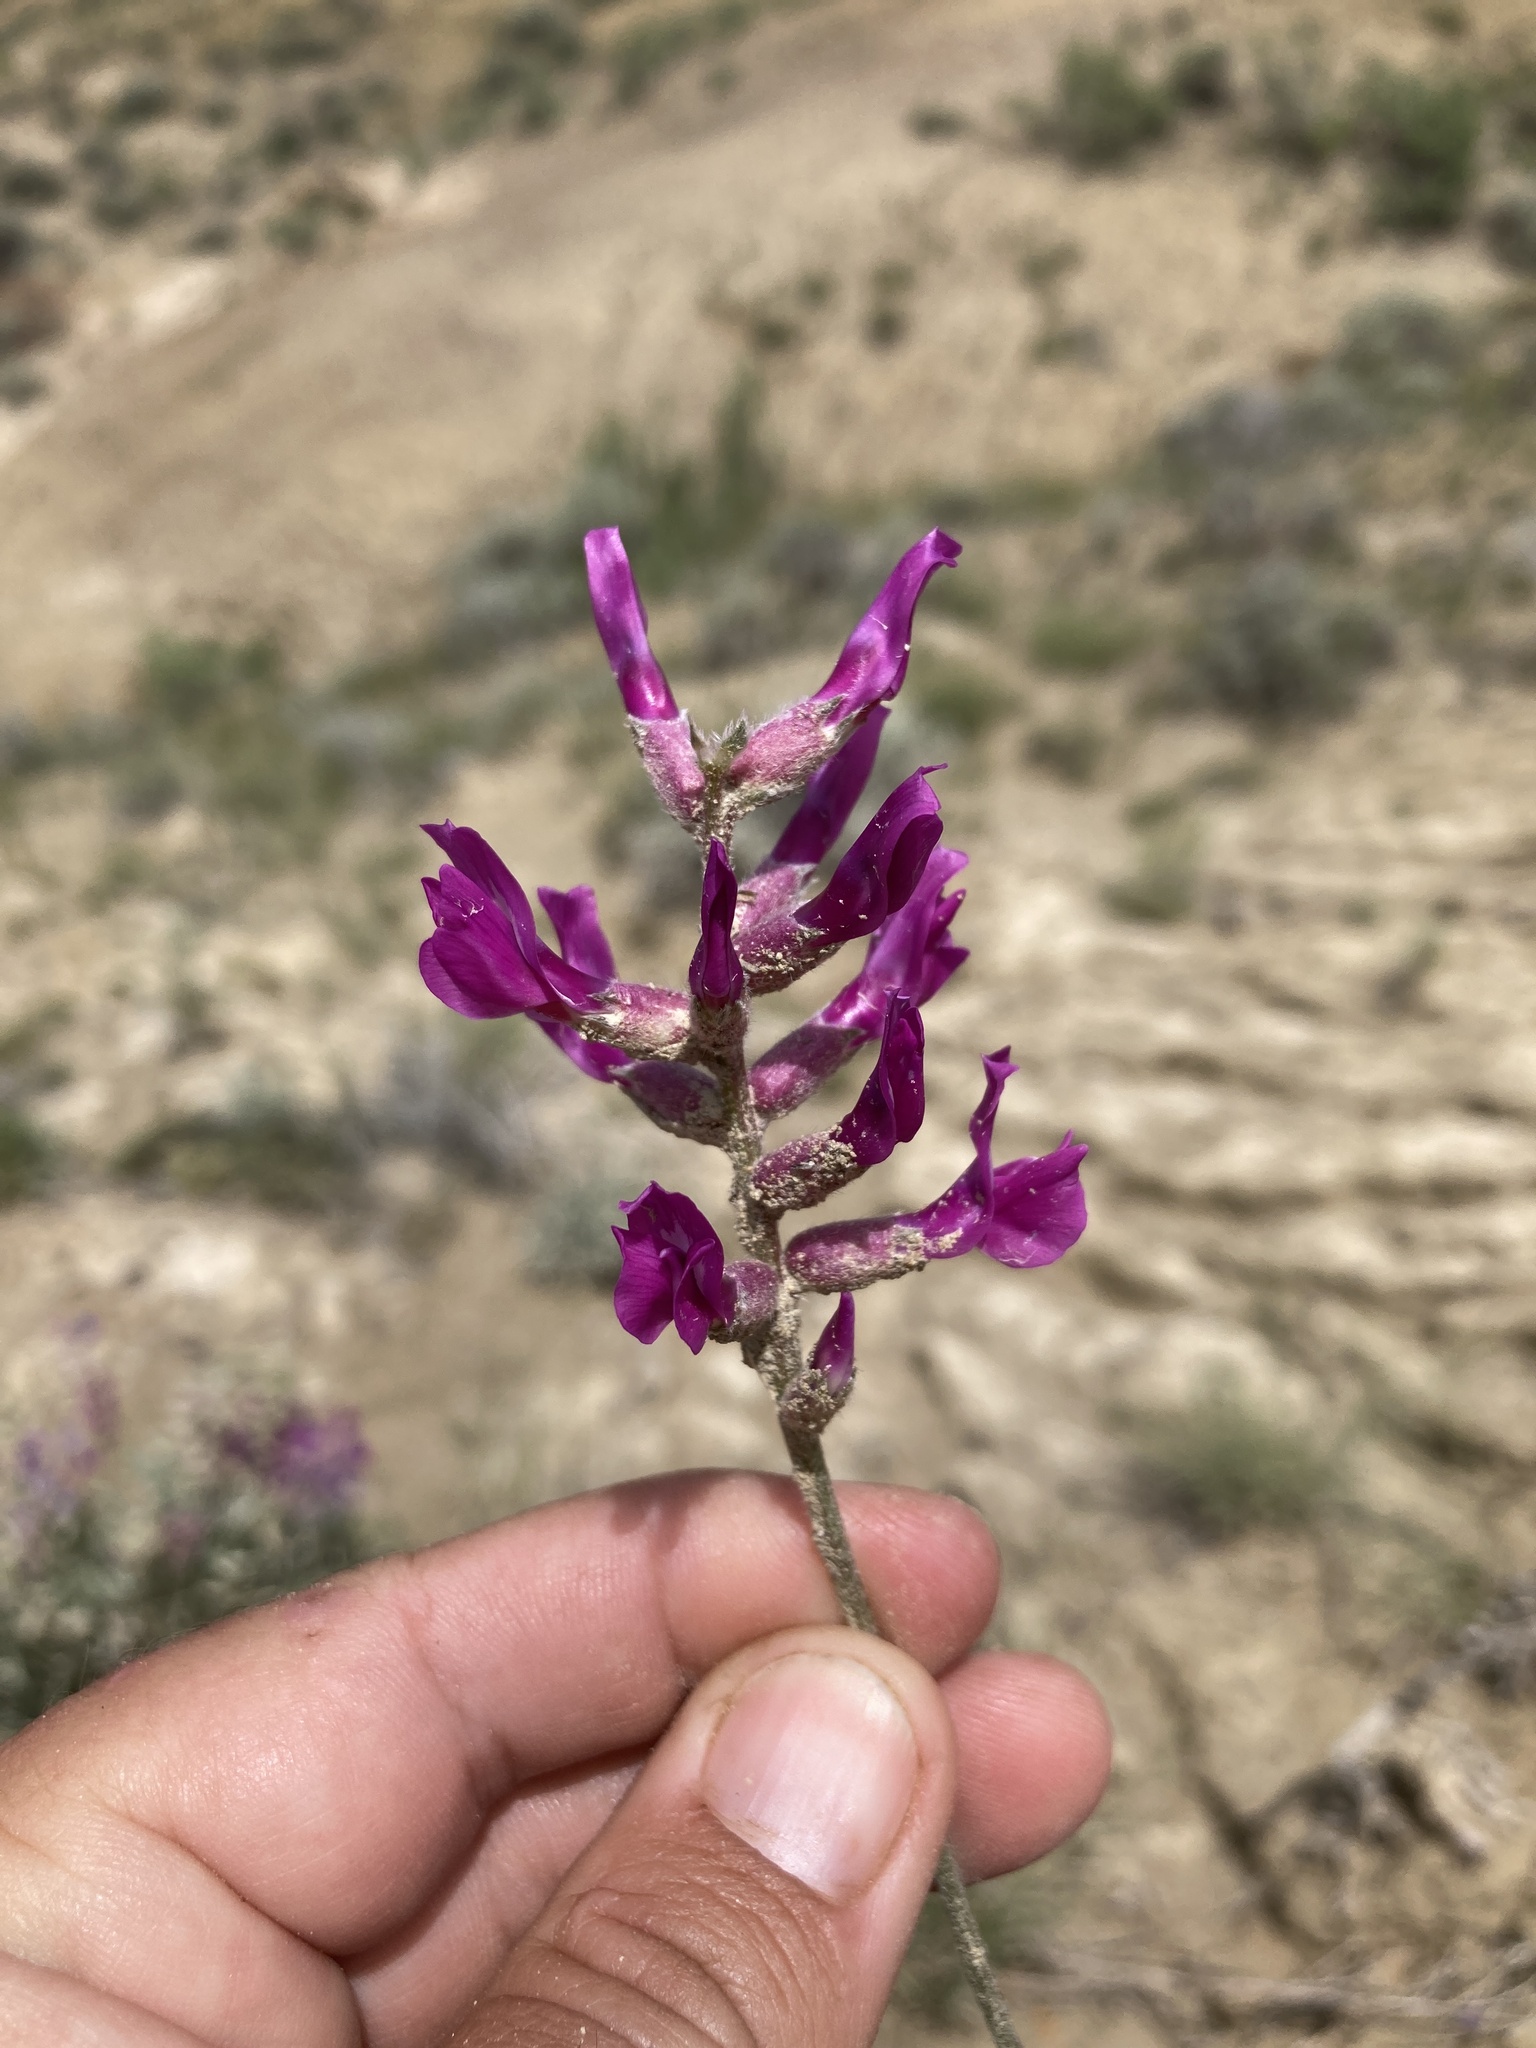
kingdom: Plantae
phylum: Tracheophyta
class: Magnoliopsida
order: Fabales
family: Fabaceae
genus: Oxytropis
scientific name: Oxytropis besseyi
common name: Bessey's locoweed
